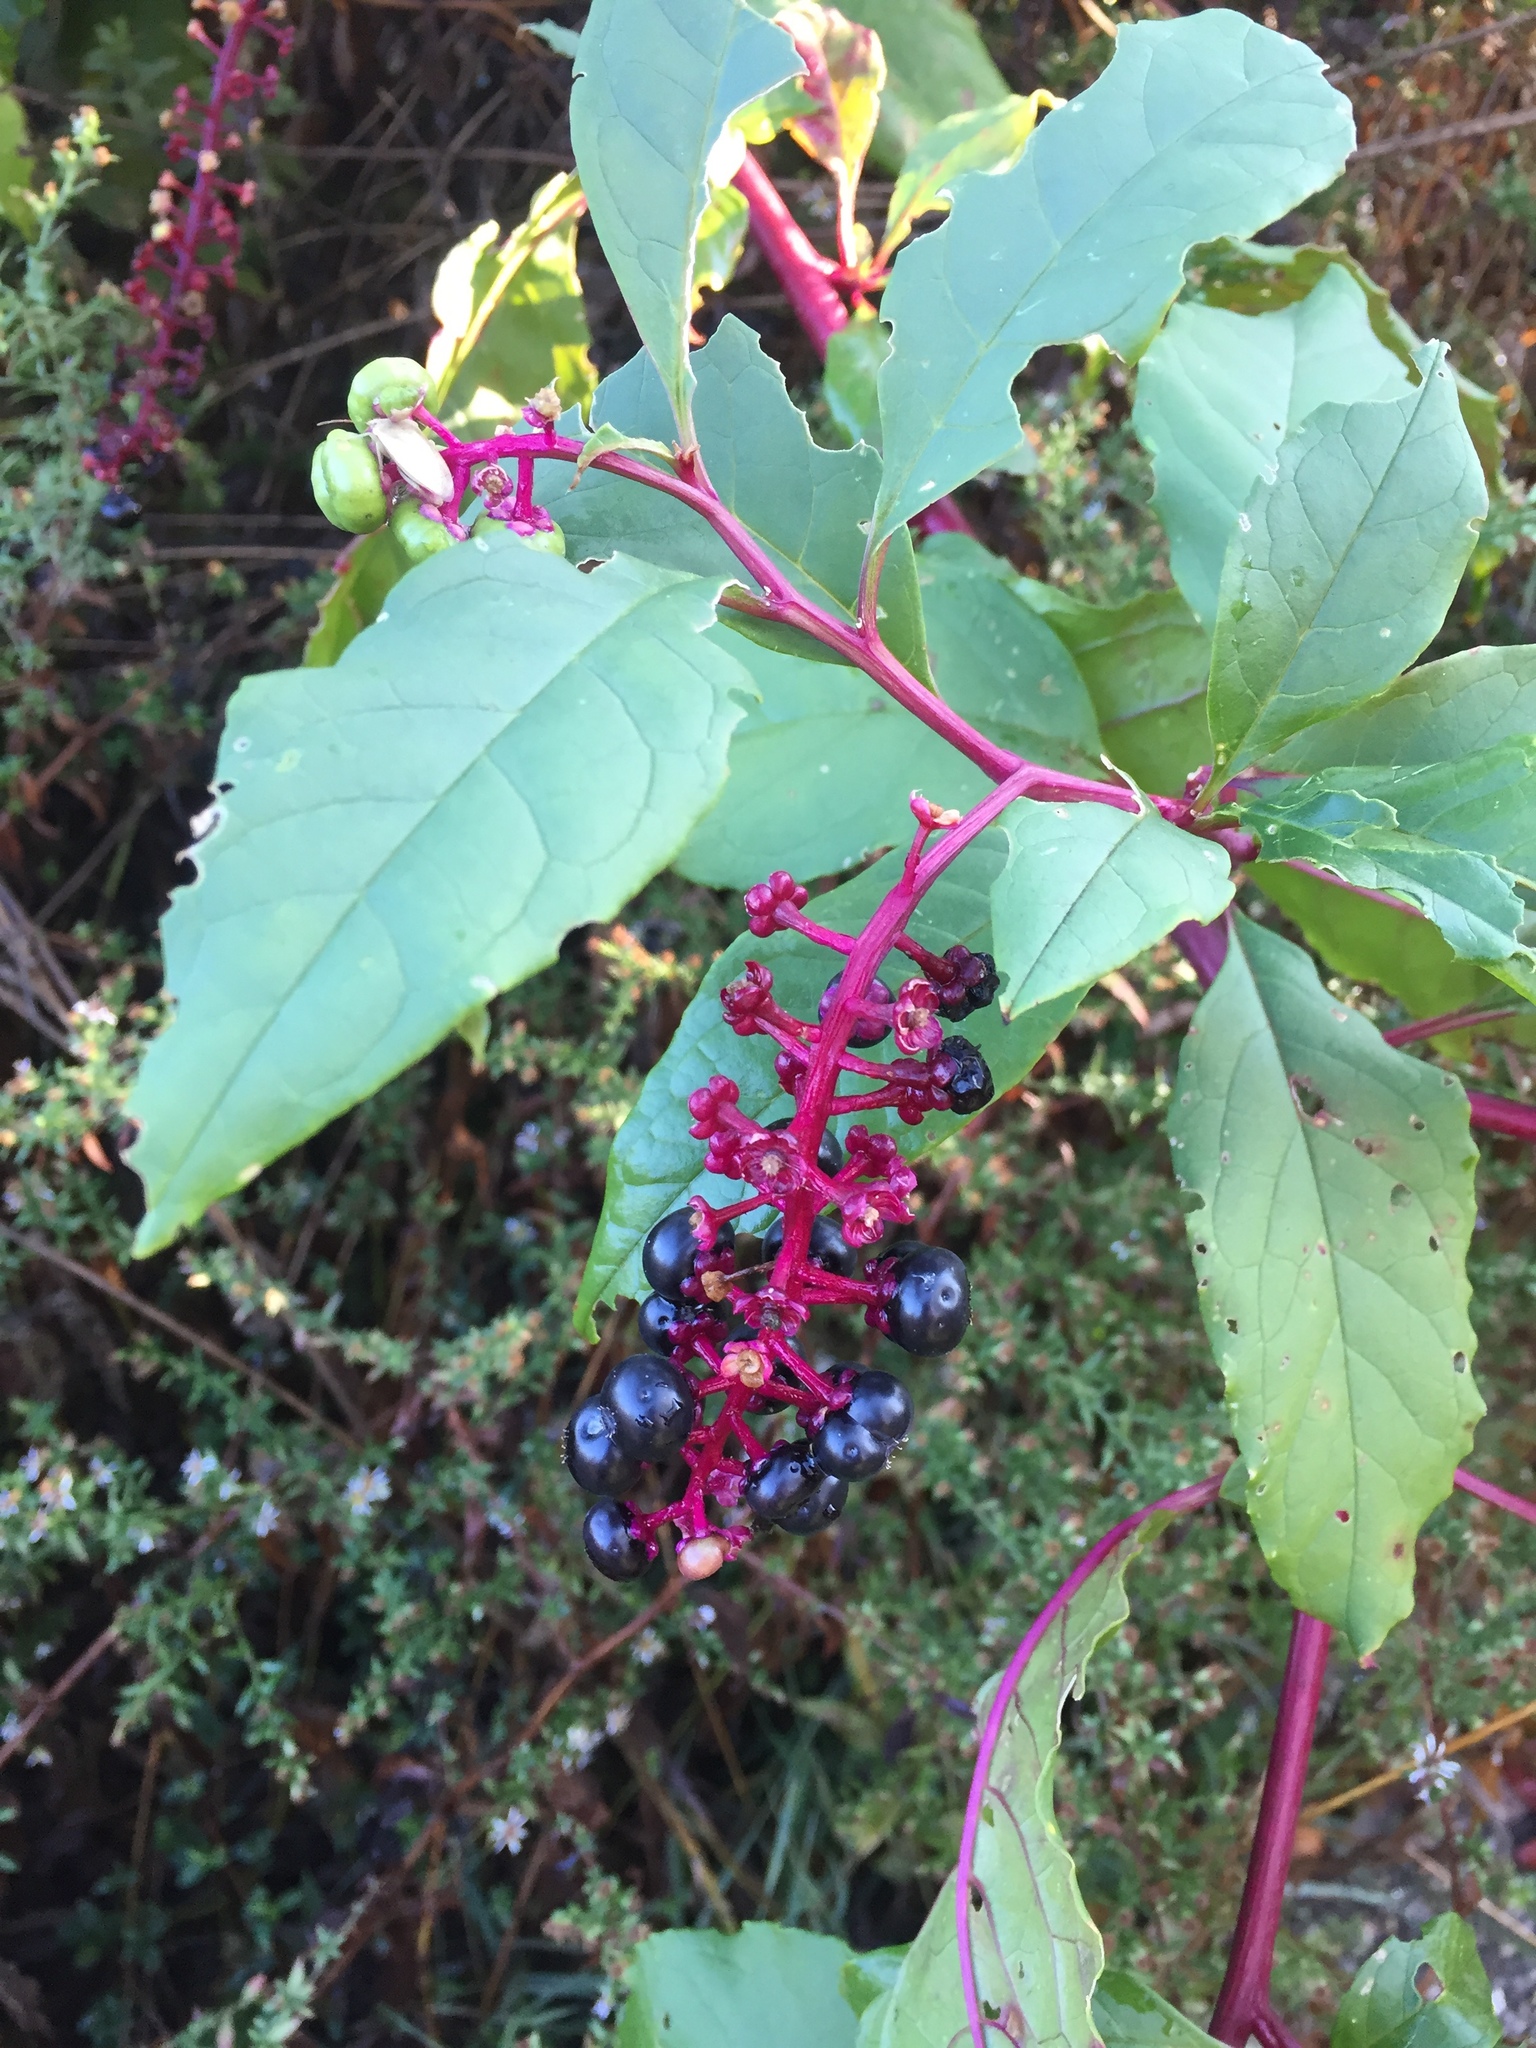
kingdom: Plantae
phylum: Tracheophyta
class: Magnoliopsida
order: Caryophyllales
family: Phytolaccaceae
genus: Phytolacca
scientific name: Phytolacca americana
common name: American pokeweed
